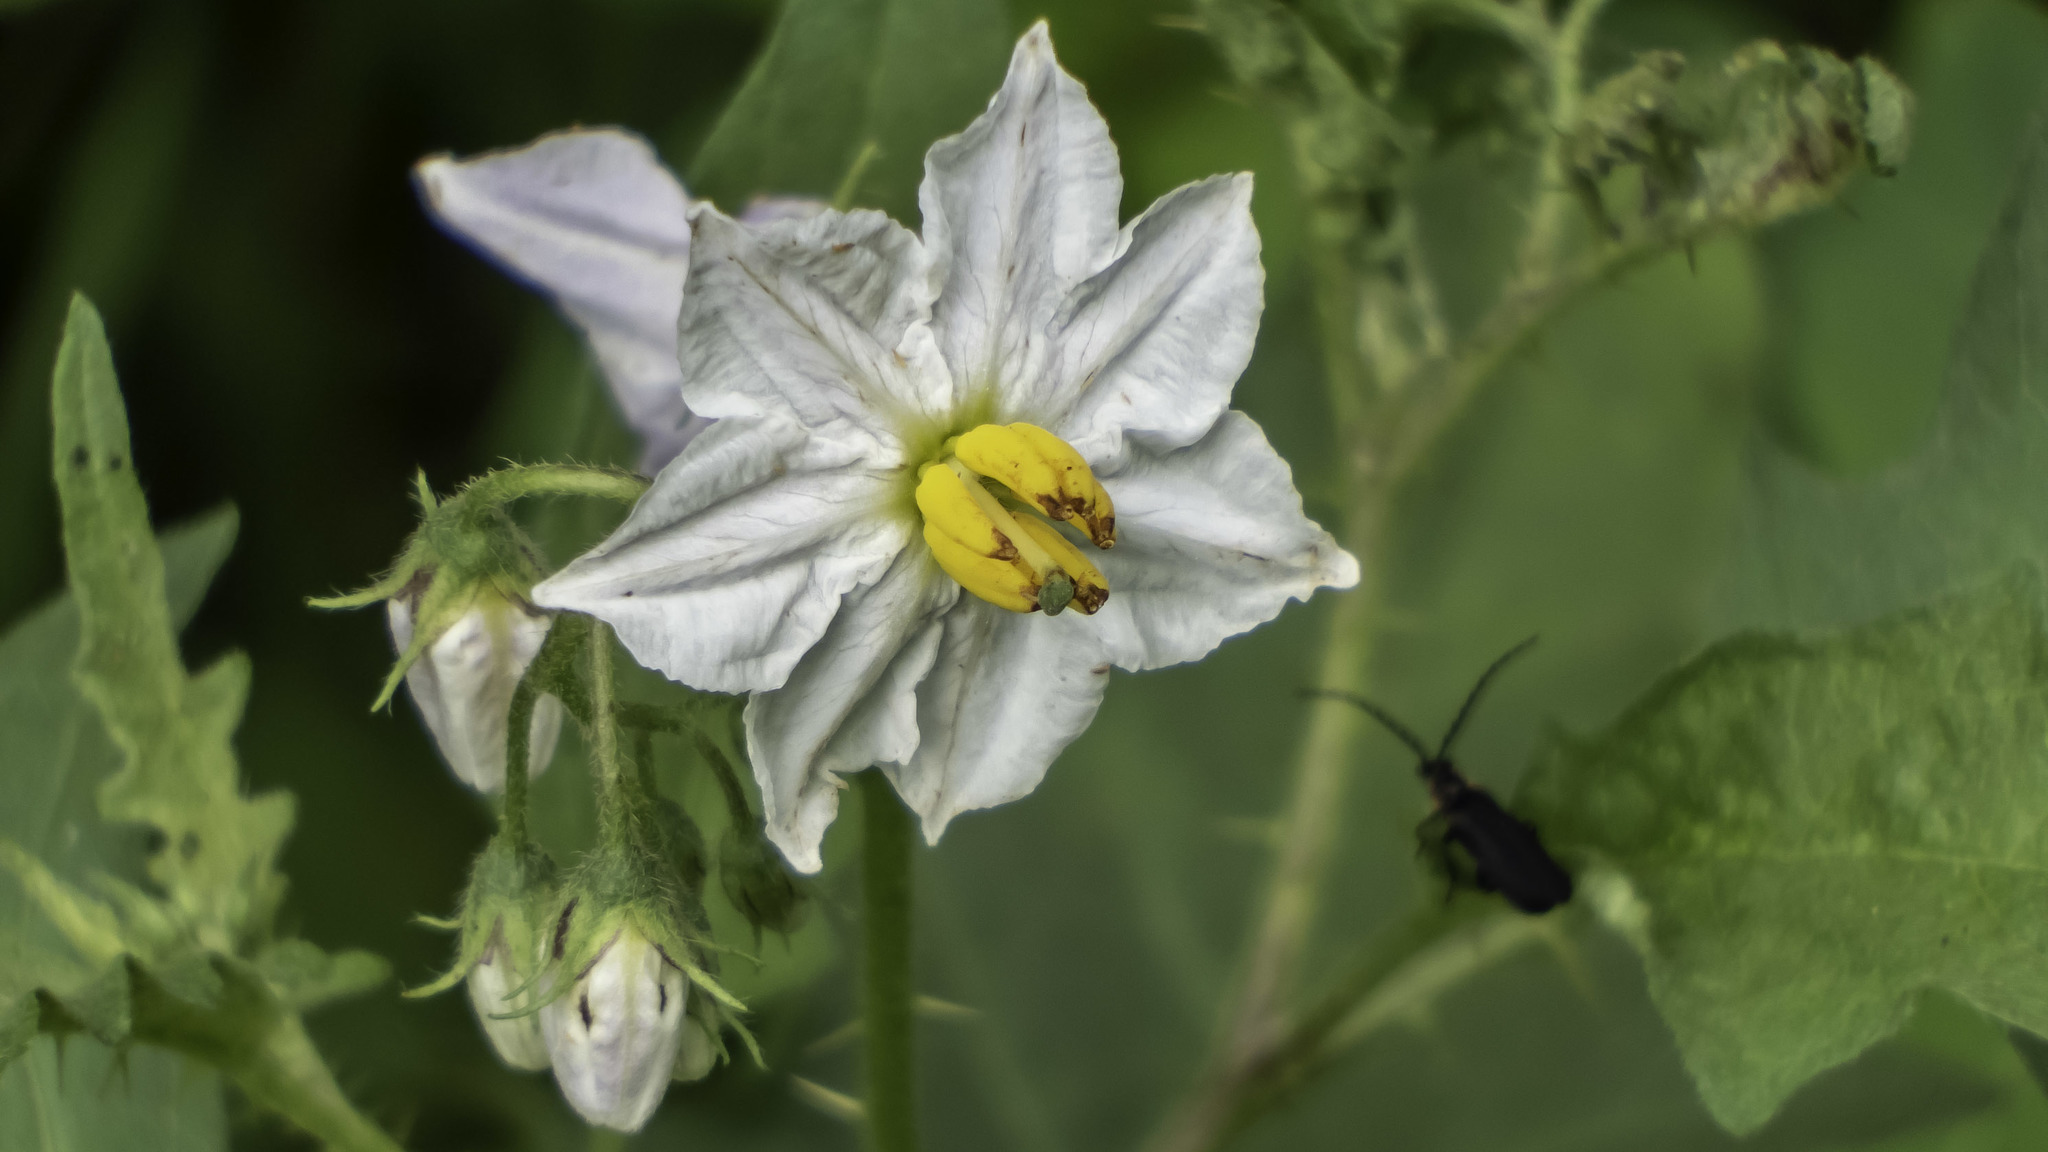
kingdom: Plantae
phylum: Tracheophyta
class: Magnoliopsida
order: Solanales
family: Solanaceae
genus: Solanum
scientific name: Solanum carolinense
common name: Horse-nettle
